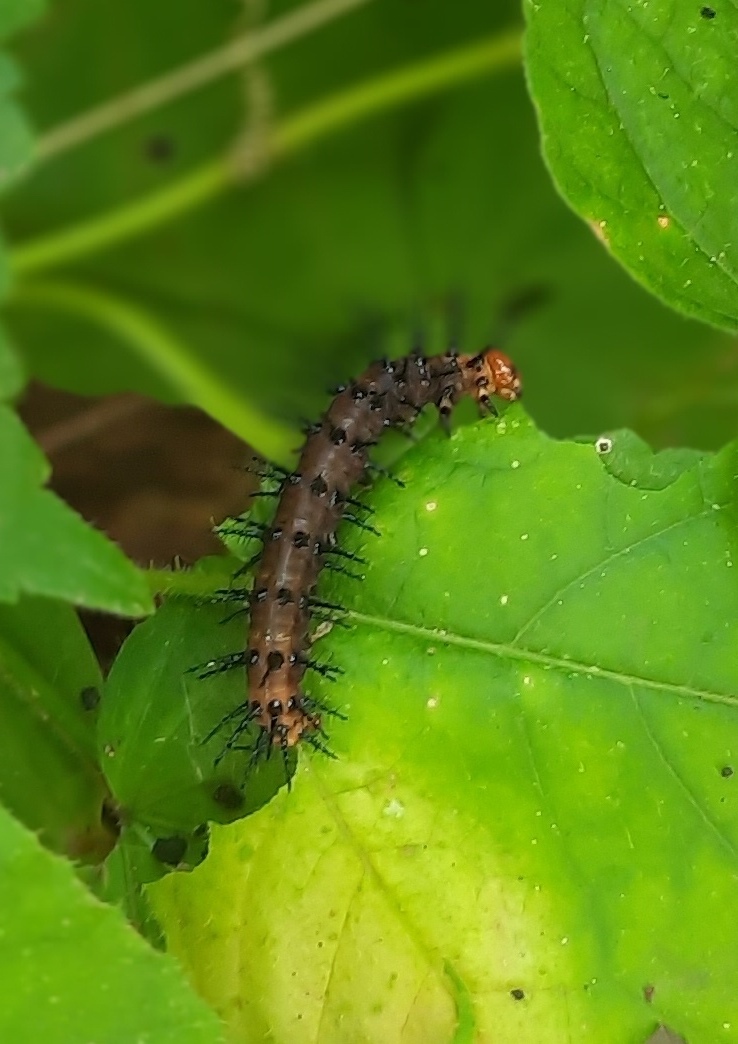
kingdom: Animalia
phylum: Arthropoda
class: Insecta
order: Lepidoptera
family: Nymphalidae
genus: Acraea
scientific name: Acraea terpsicore
